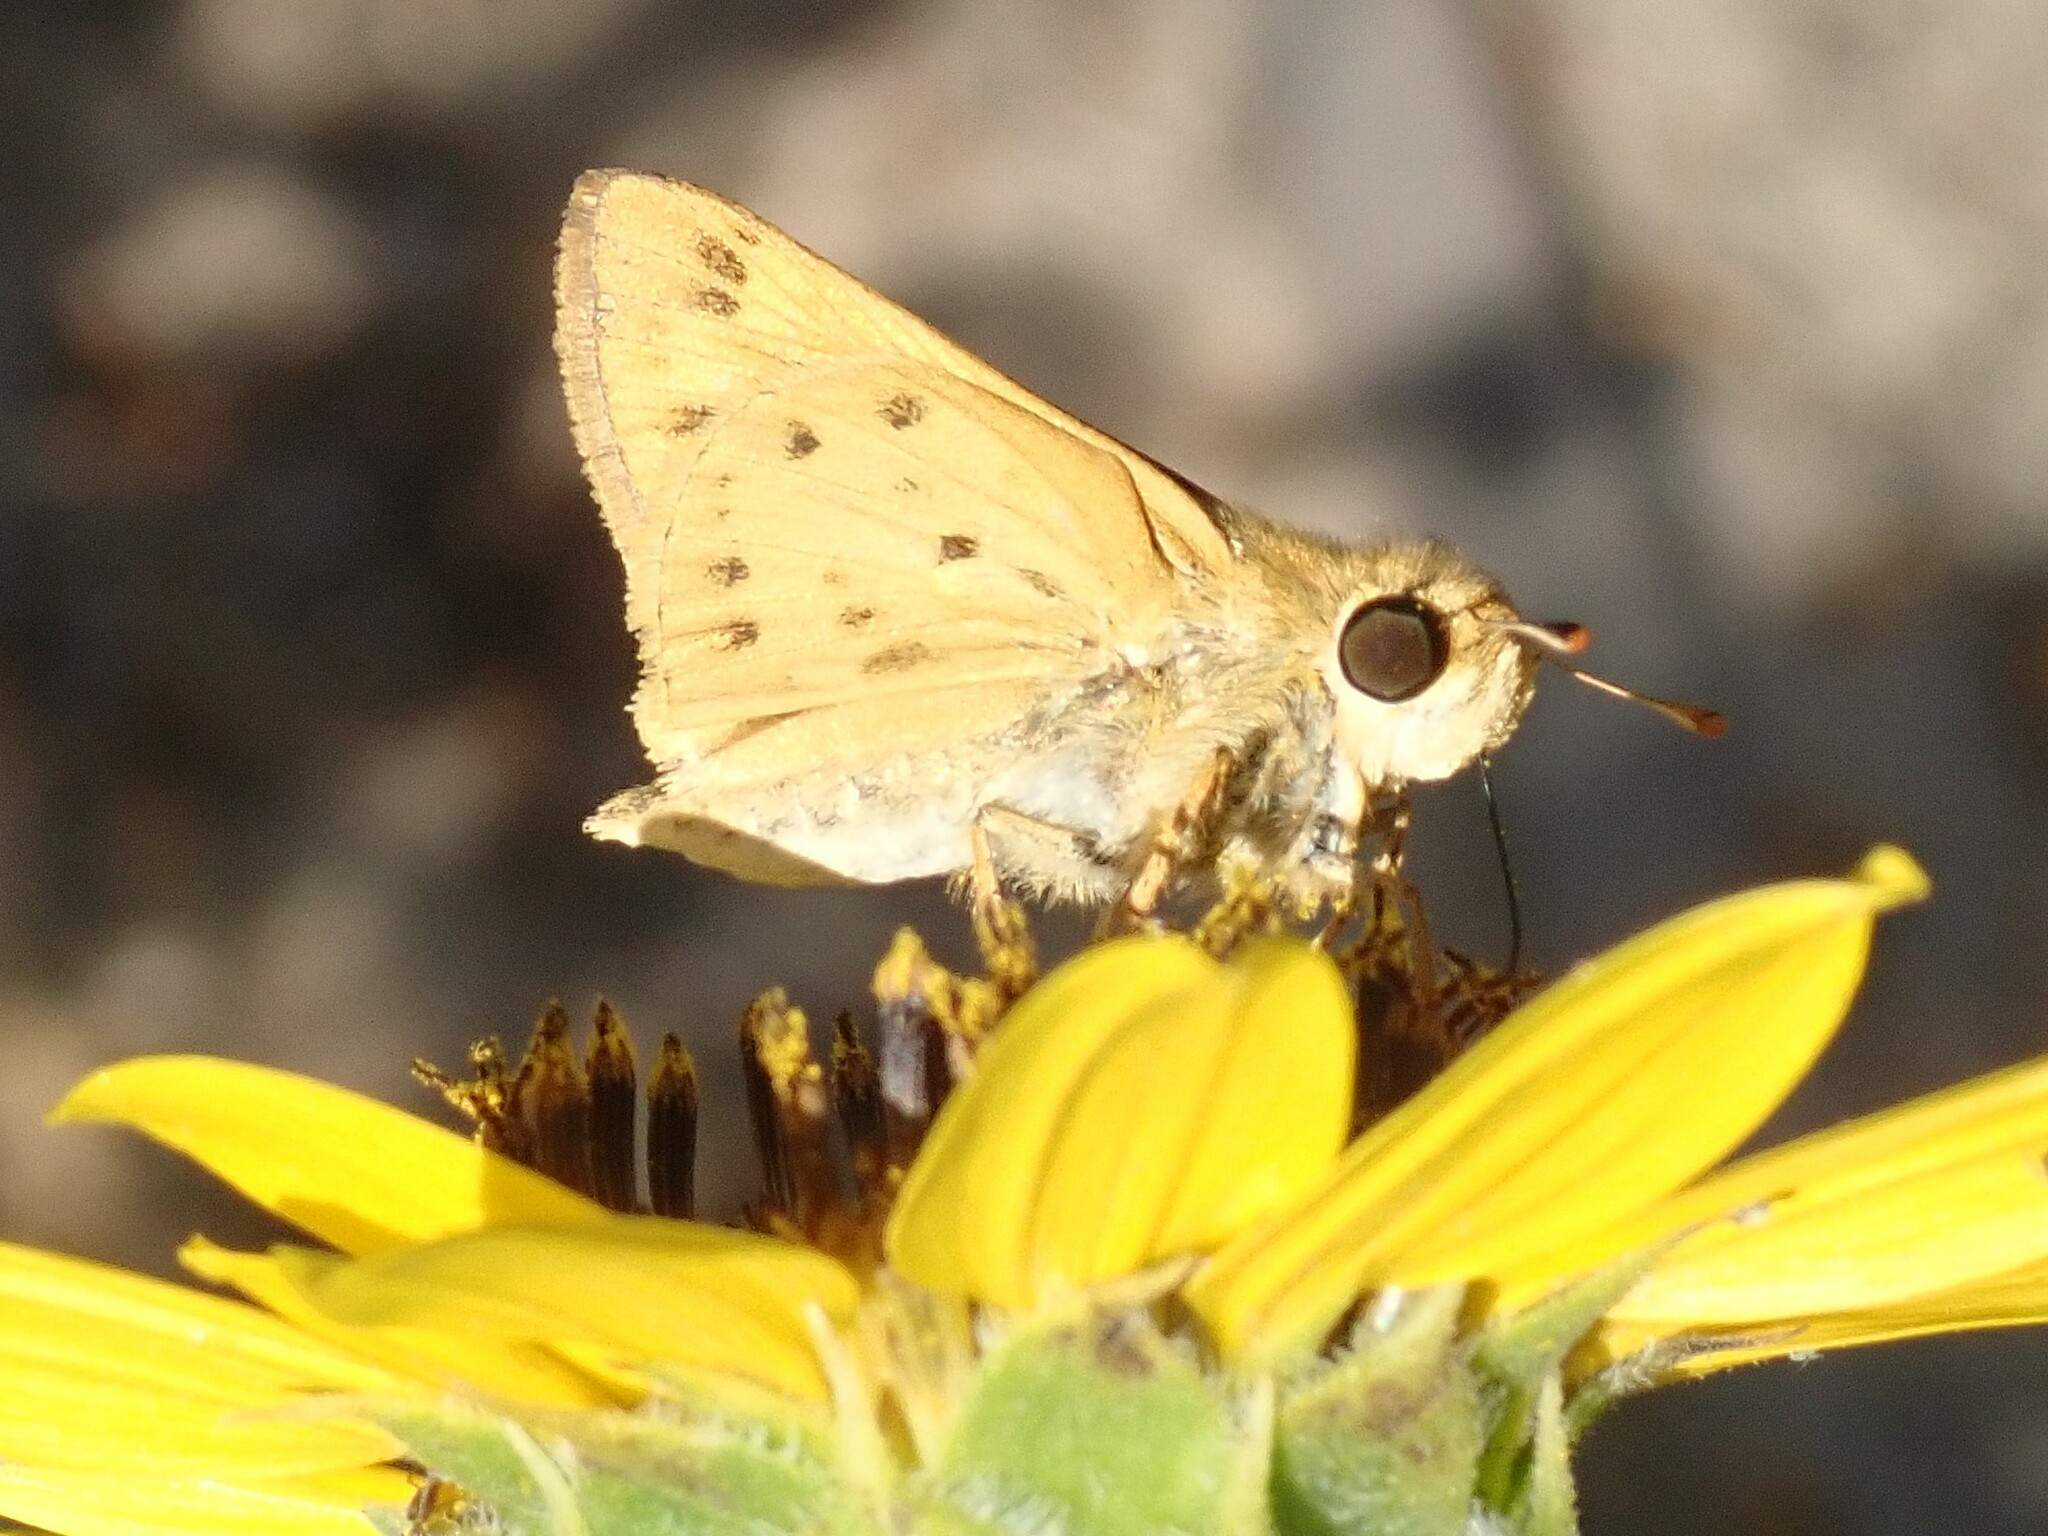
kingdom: Animalia
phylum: Arthropoda
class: Insecta
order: Lepidoptera
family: Hesperiidae
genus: Hylephila
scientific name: Hylephila phyleus
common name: Fiery skipper
